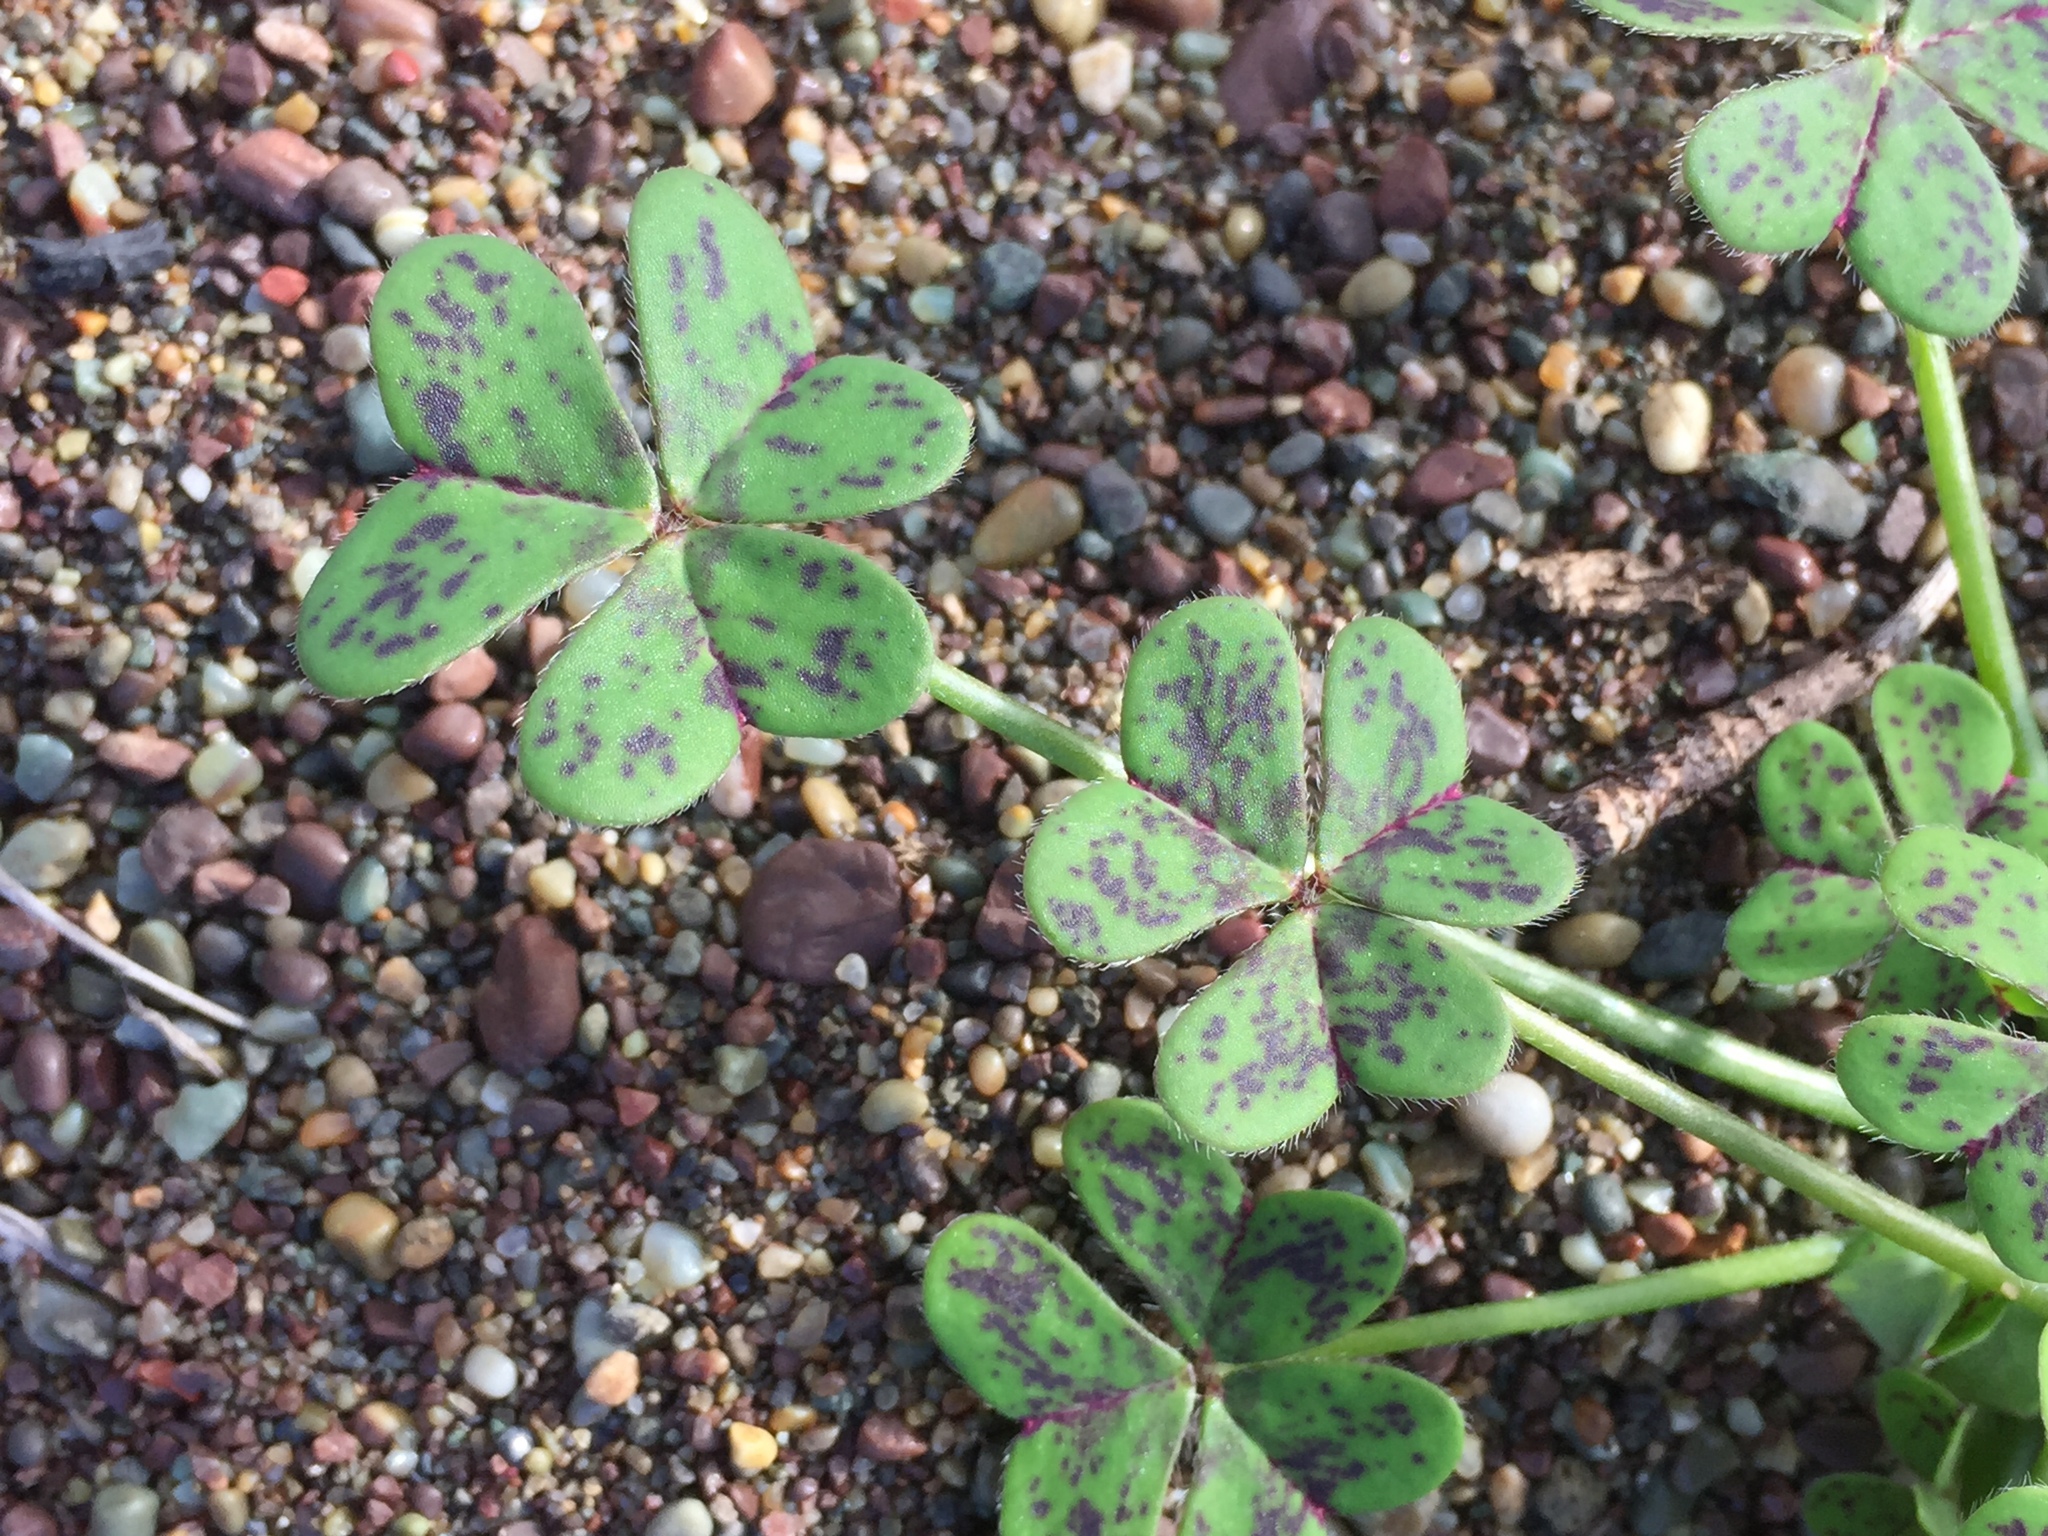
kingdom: Plantae
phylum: Tracheophyta
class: Magnoliopsida
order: Oxalidales
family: Oxalidaceae
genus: Oxalis
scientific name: Oxalis pes-caprae
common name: Bermuda-buttercup
